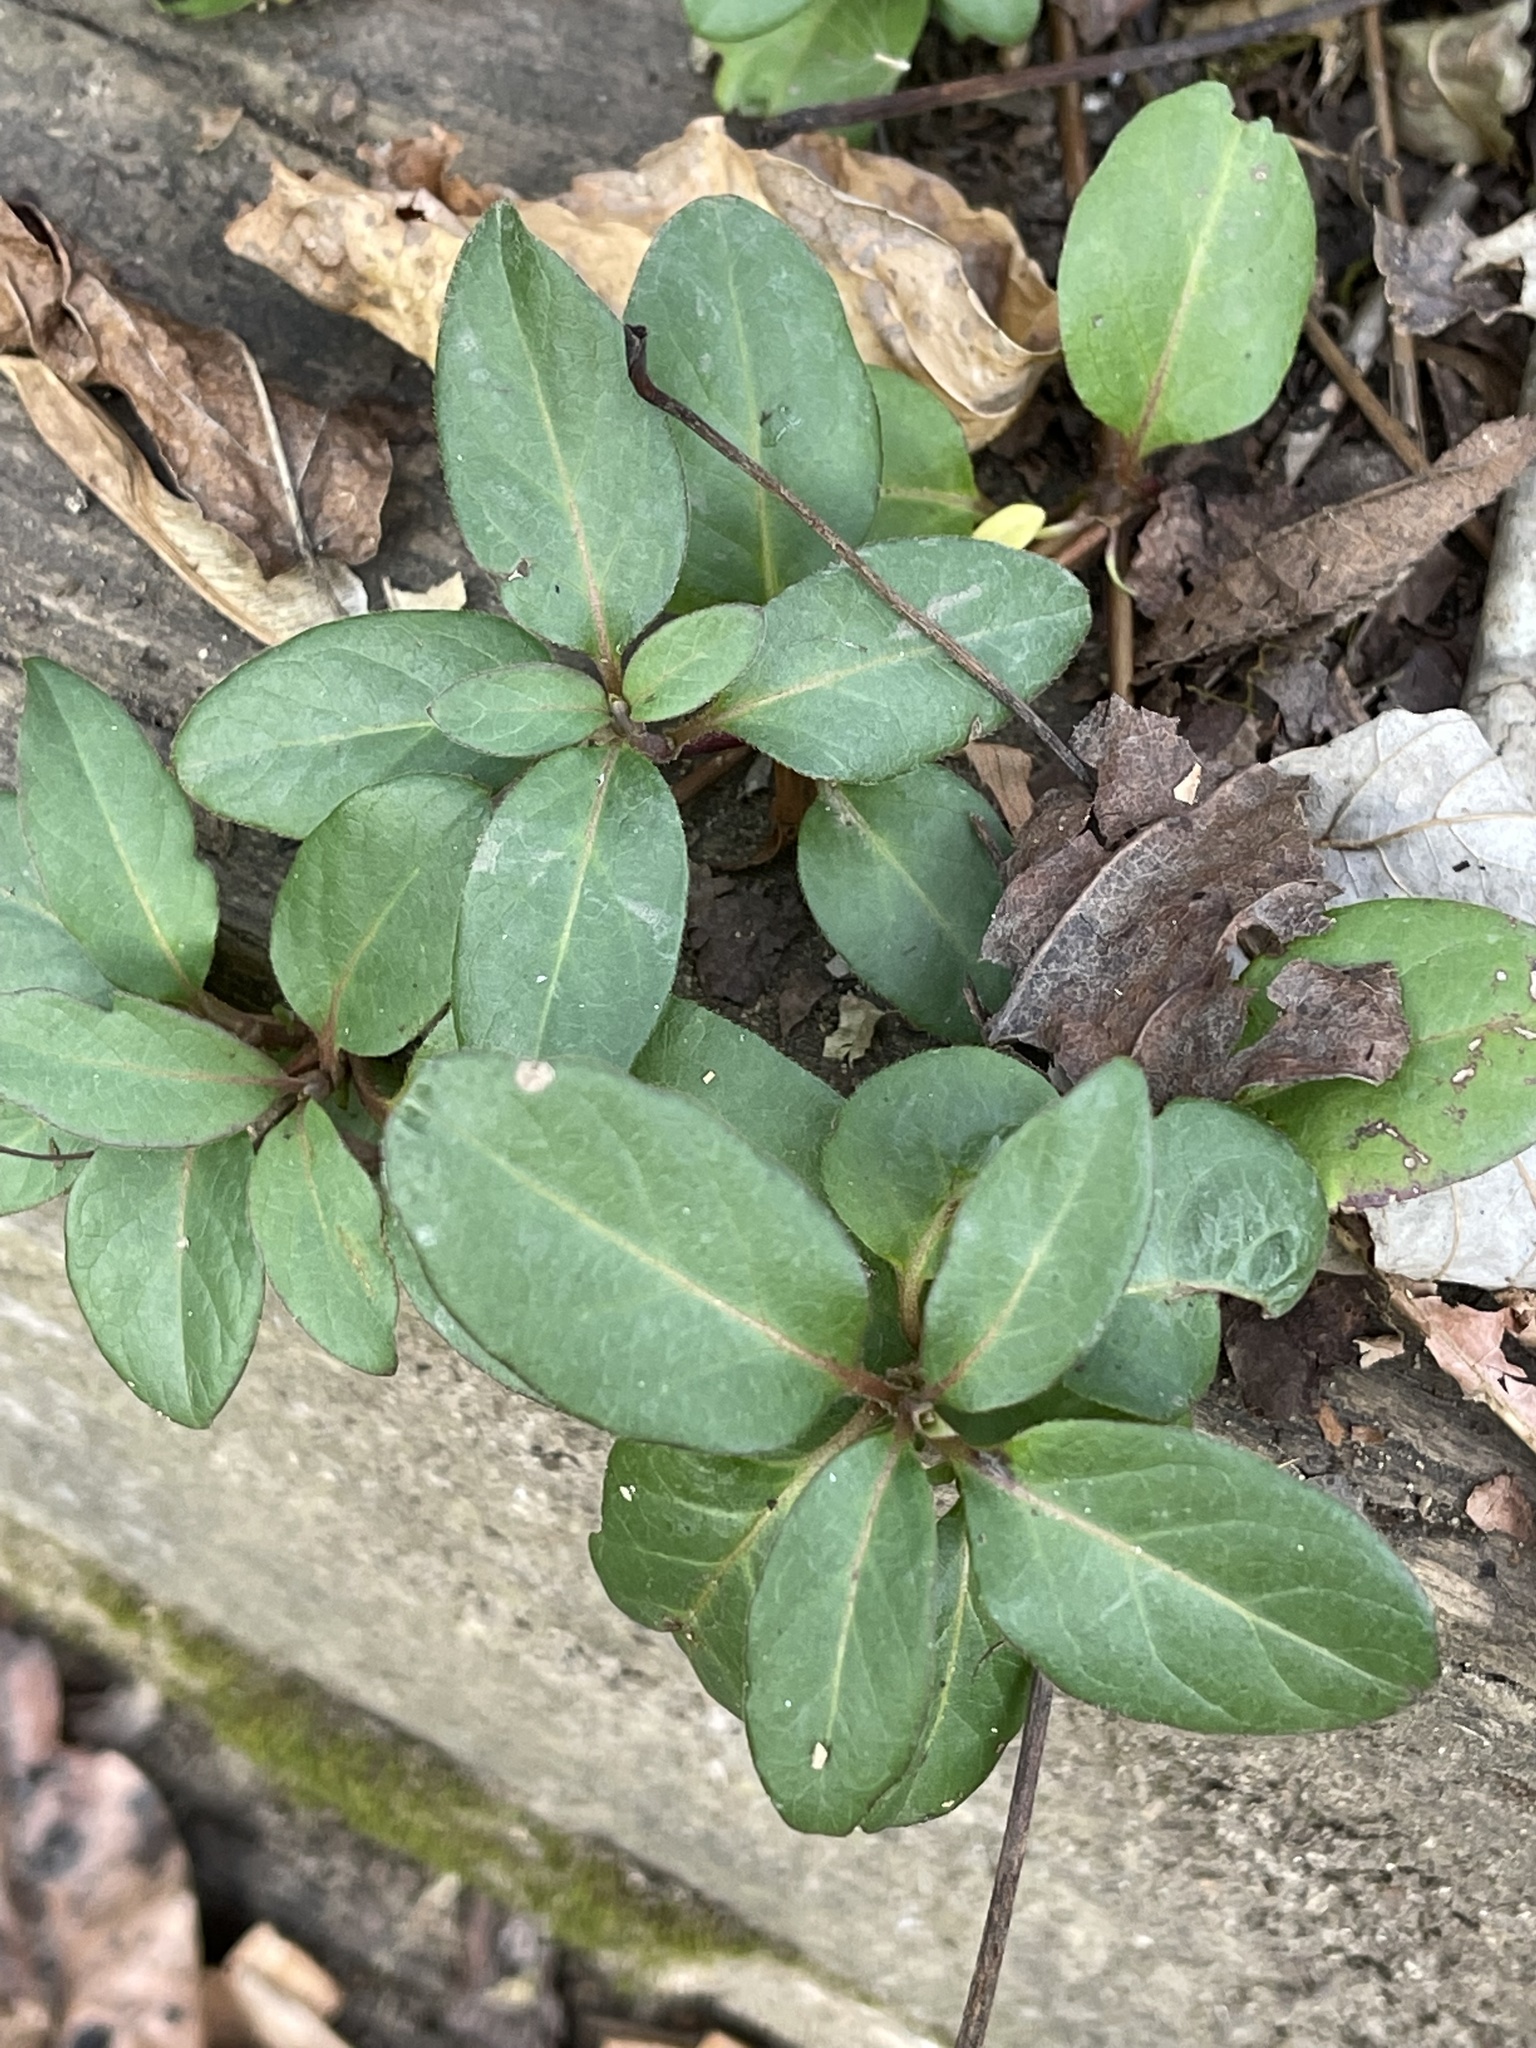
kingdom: Plantae
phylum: Tracheophyta
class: Magnoliopsida
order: Ericales
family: Ericaceae
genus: Gaultheria
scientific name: Gaultheria procumbens
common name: Checkerberry
